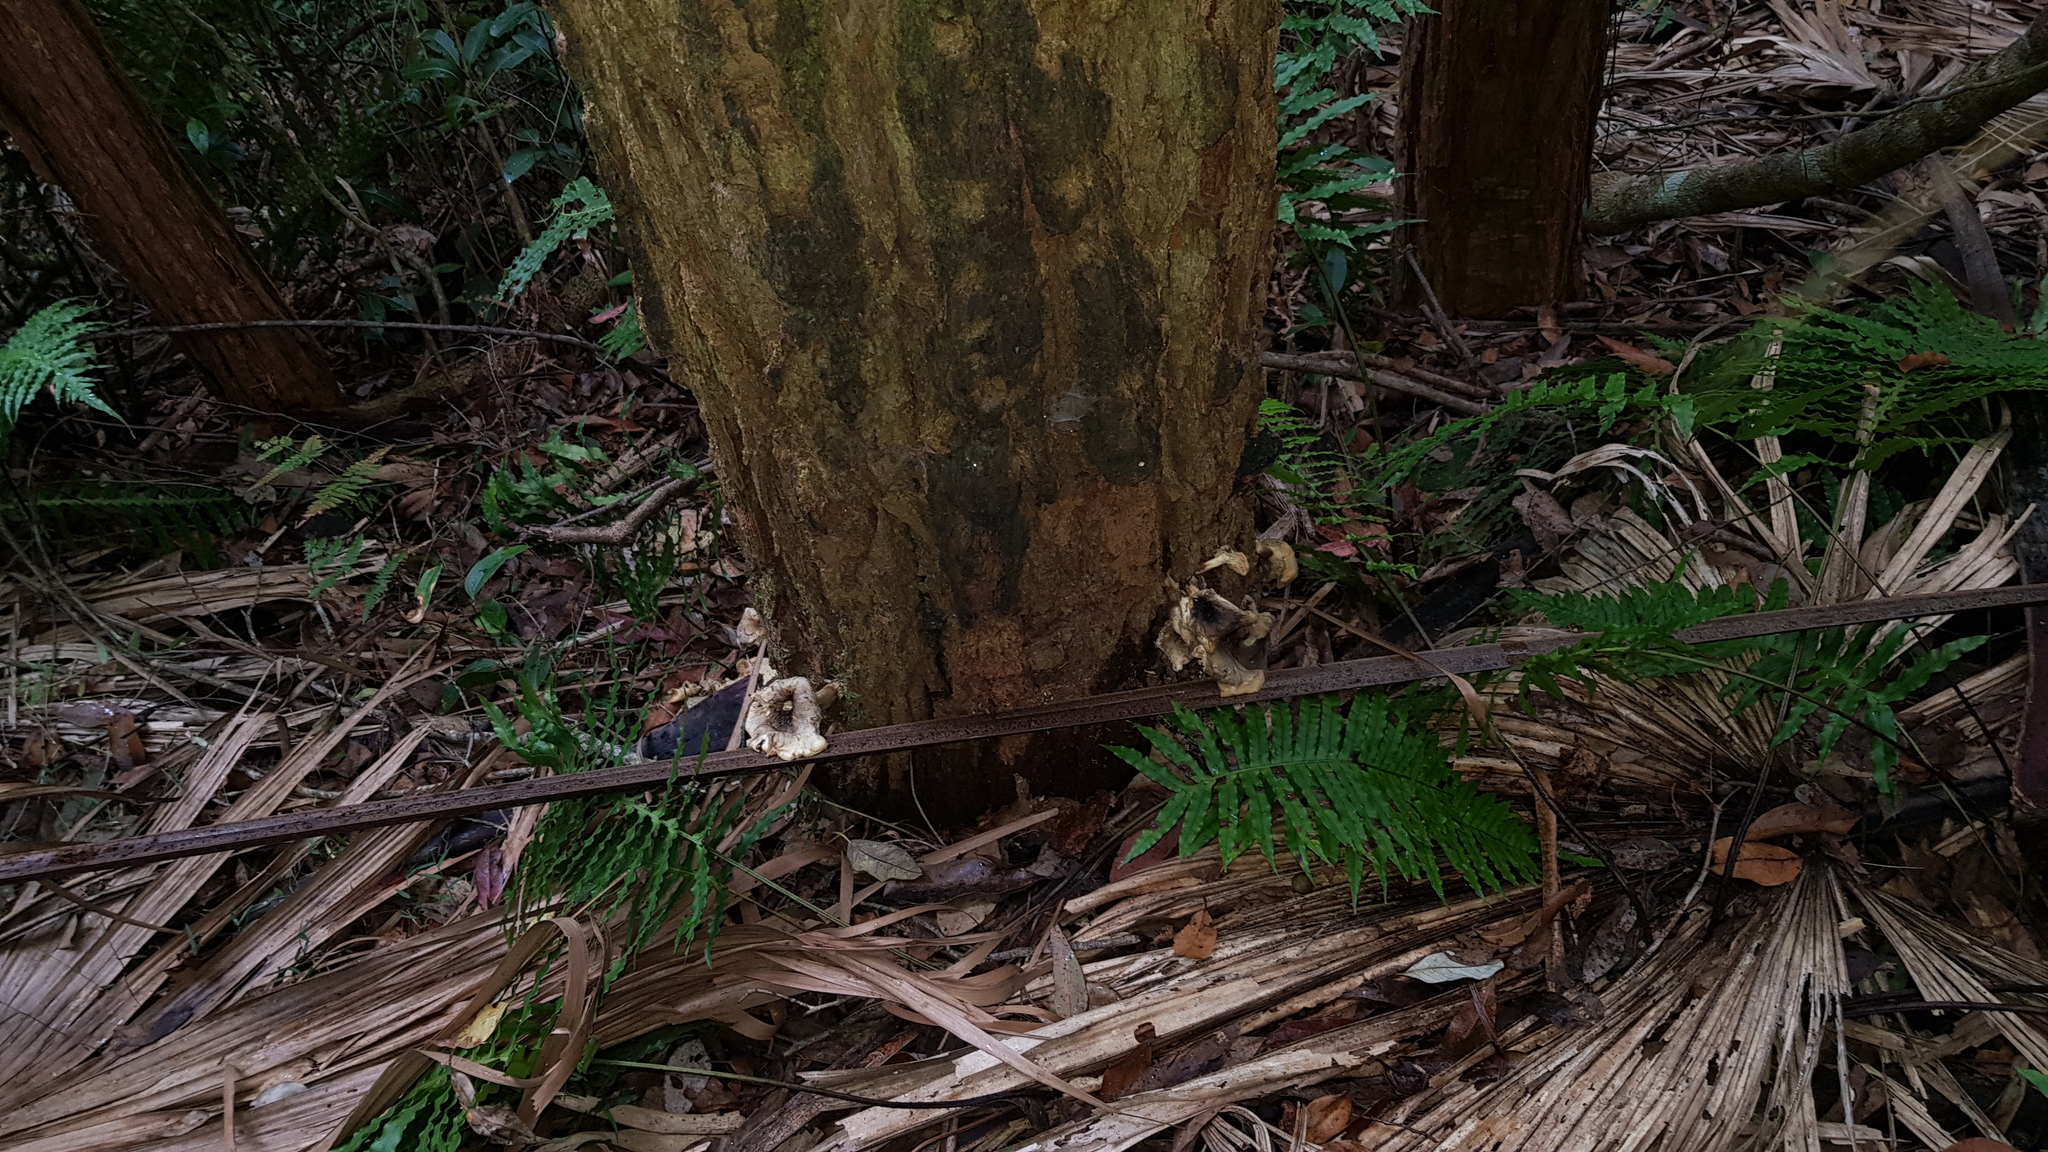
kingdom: Fungi
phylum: Basidiomycota
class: Agaricomycetes
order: Agaricales
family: Omphalotaceae
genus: Omphalotus
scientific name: Omphalotus nidiformis
